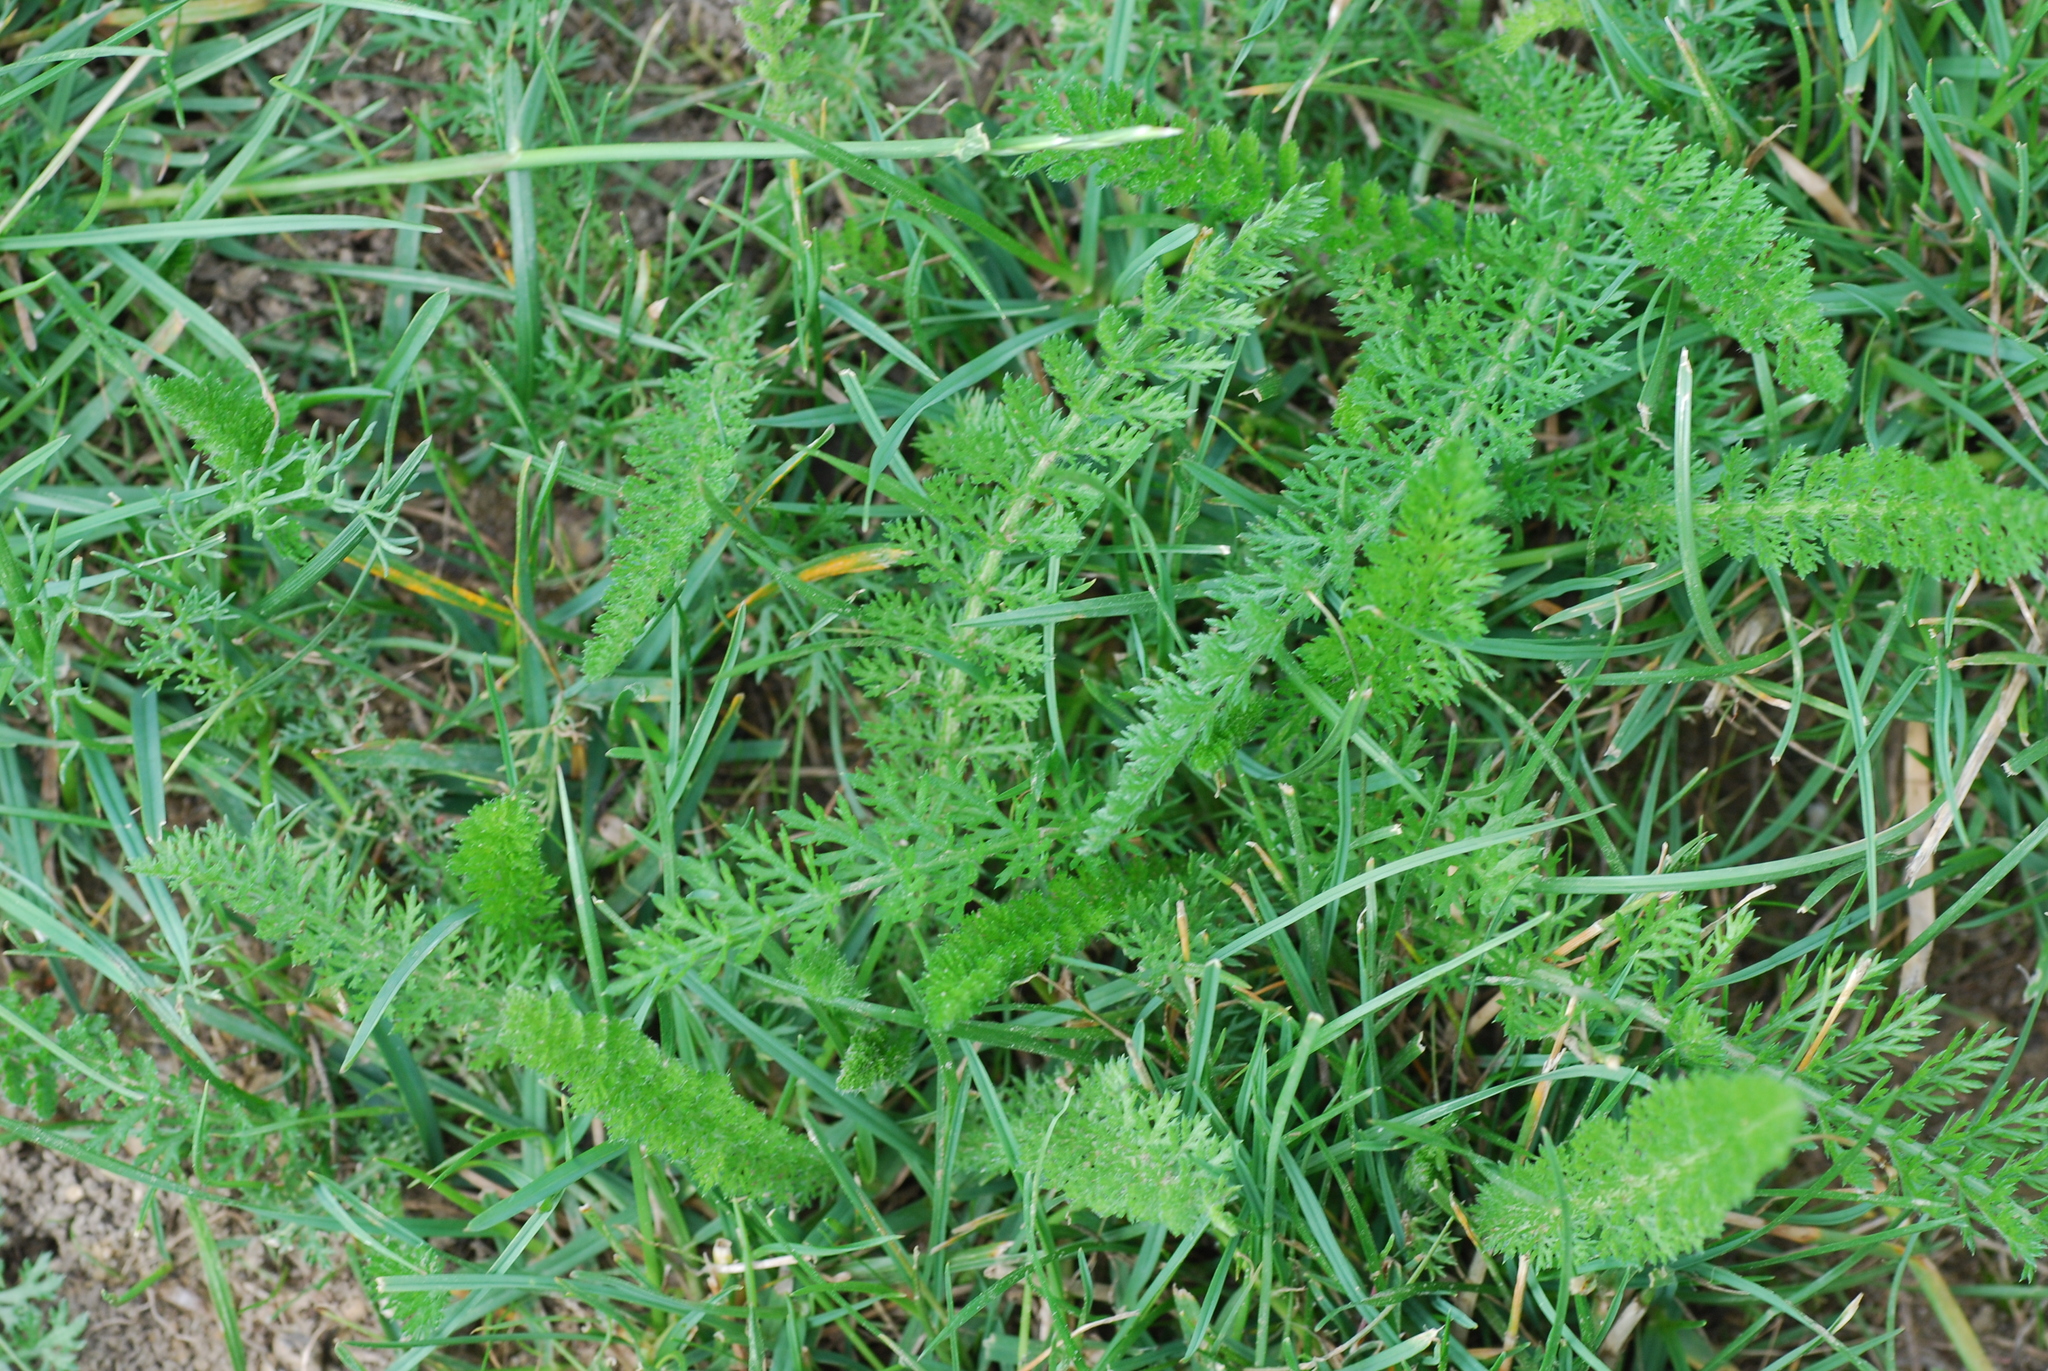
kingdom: Plantae
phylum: Tracheophyta
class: Magnoliopsida
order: Asterales
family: Asteraceae
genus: Achillea
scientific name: Achillea millefolium
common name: Yarrow
